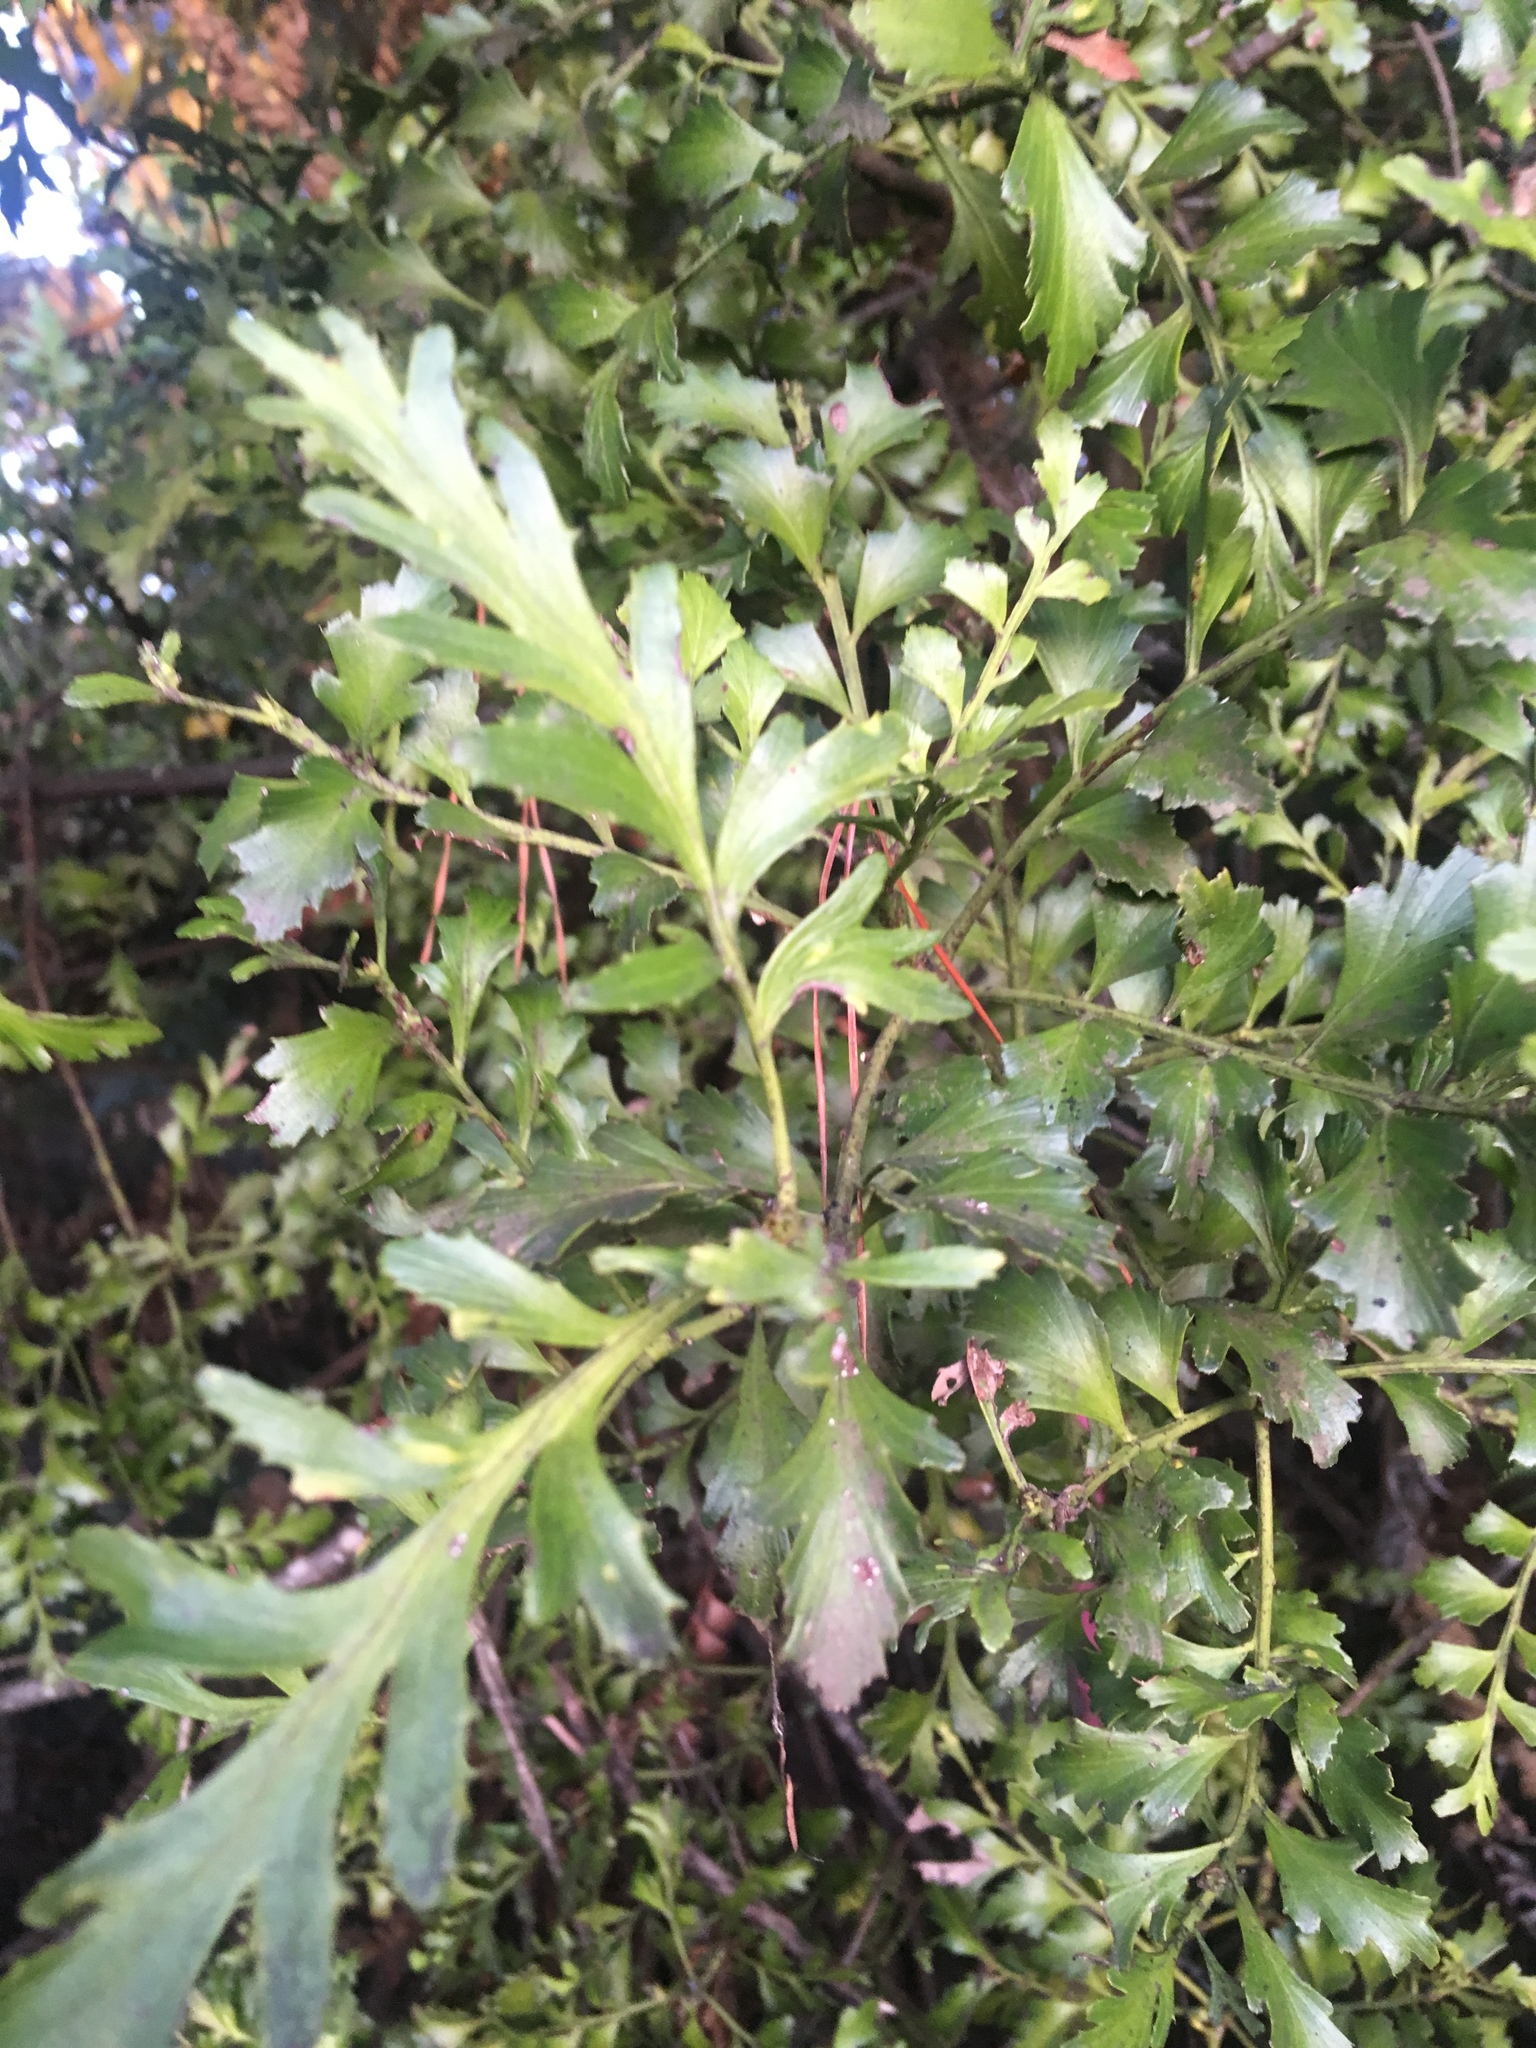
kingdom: Plantae
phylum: Tracheophyta
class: Pinopsida
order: Pinales
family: Phyllocladaceae
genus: Phyllocladus
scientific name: Phyllocladus trichomanoides
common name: Celery pine
